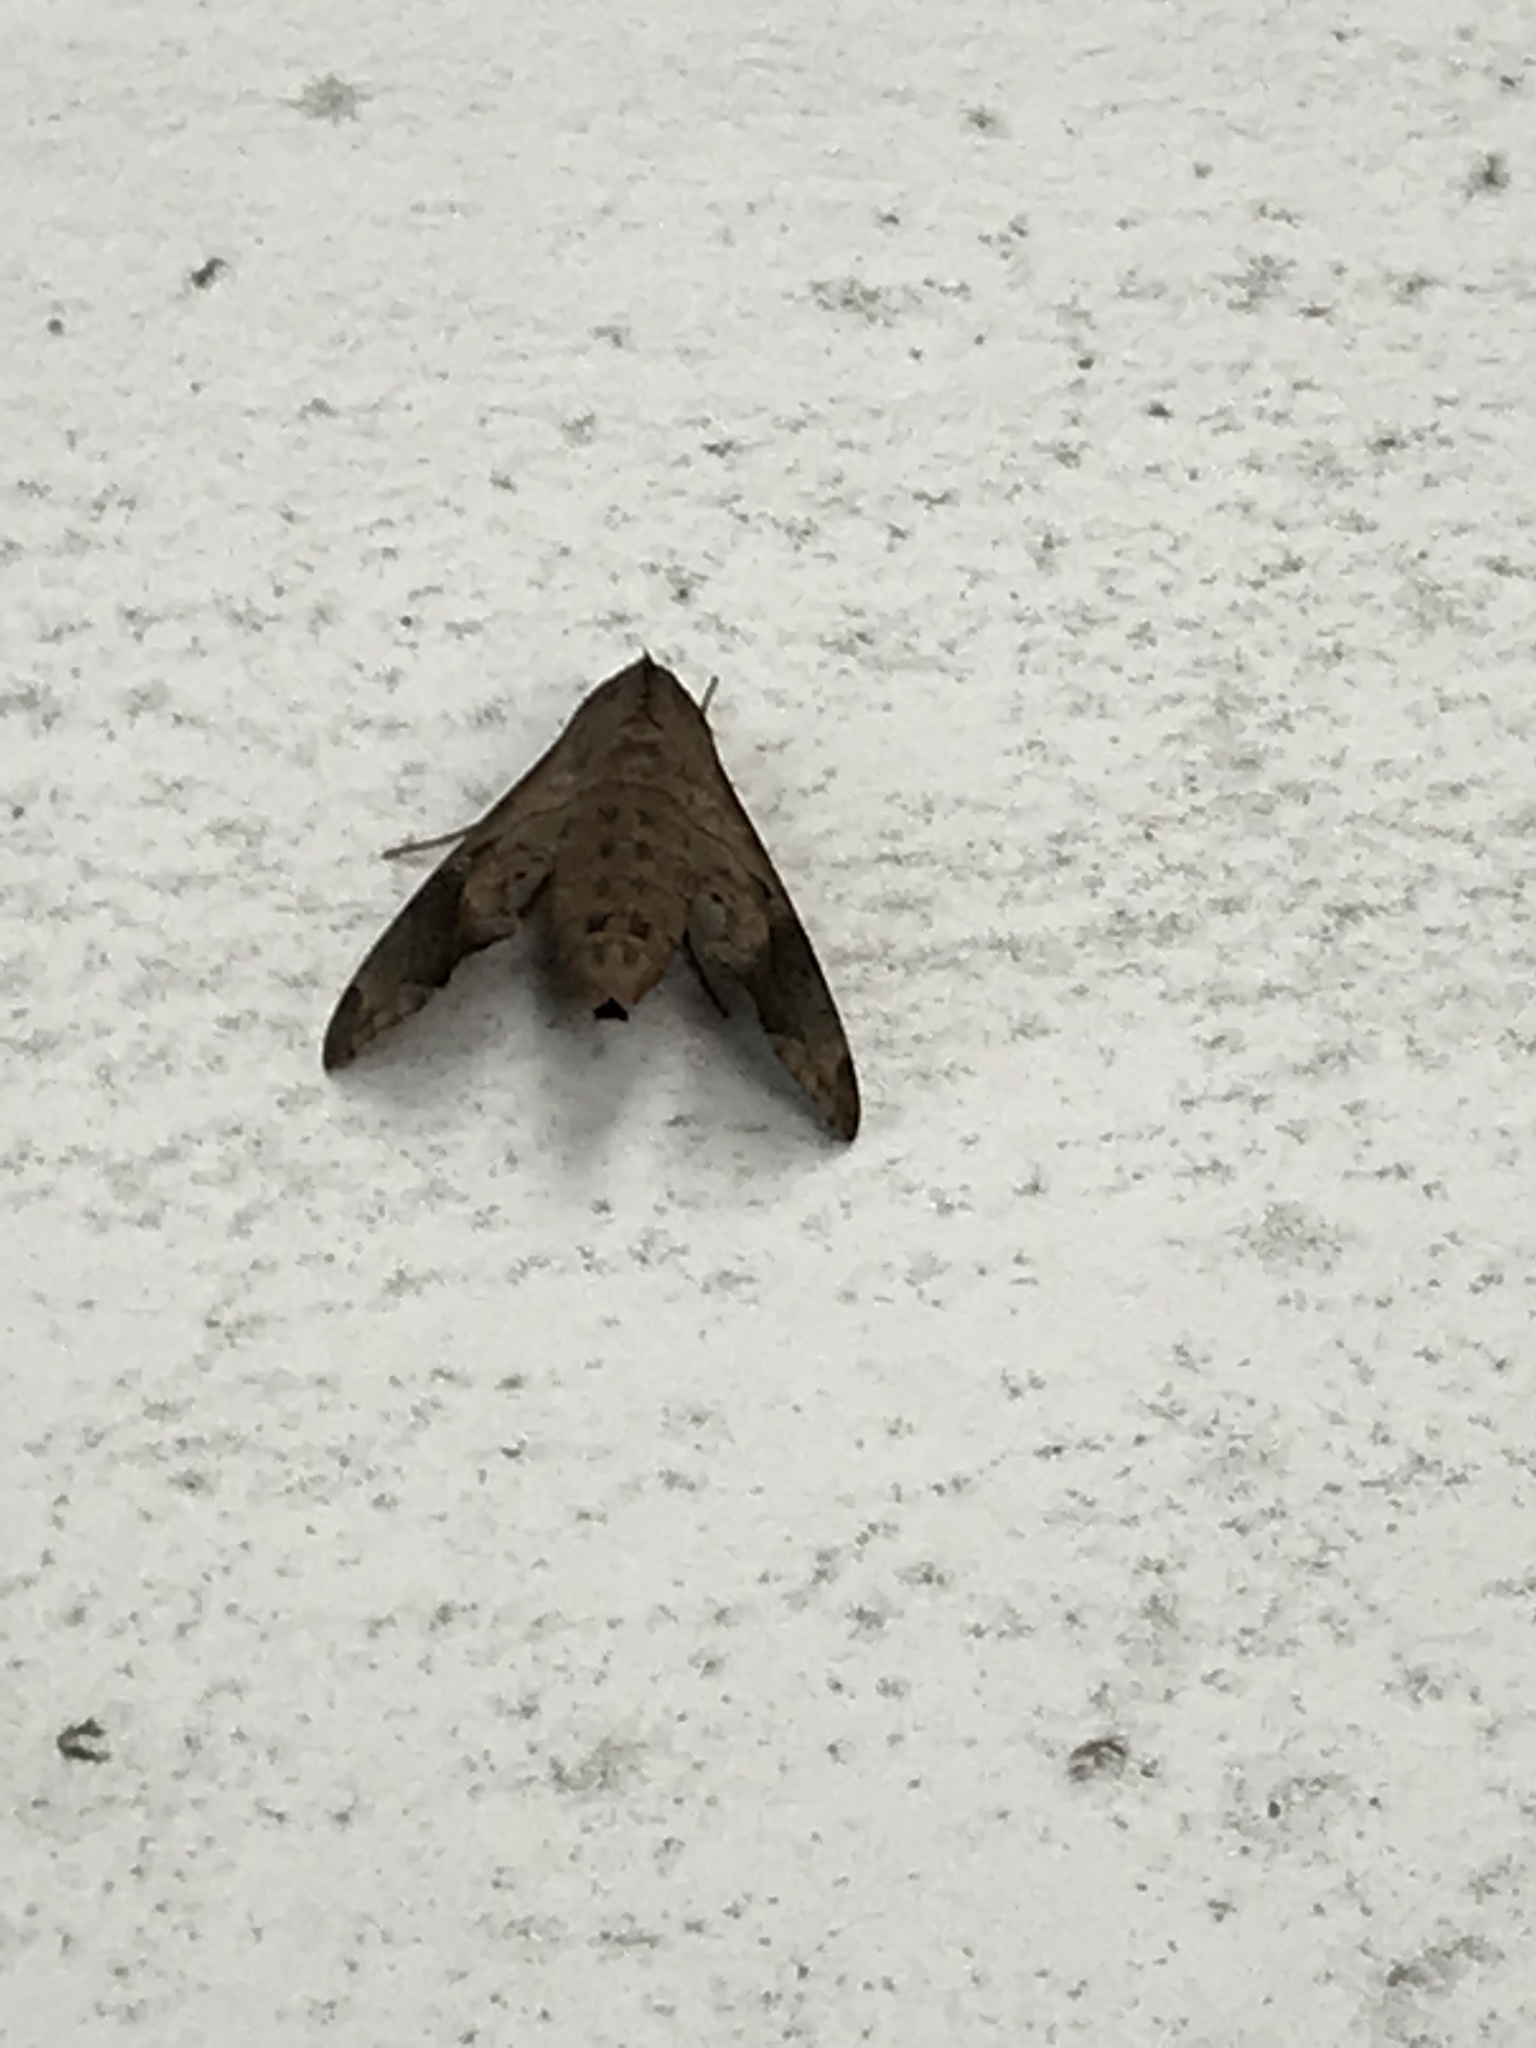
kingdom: Animalia
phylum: Arthropoda
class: Insecta
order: Lepidoptera
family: Sphingidae
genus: Enyo
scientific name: Enyo lugubris
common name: Mournful sphinx
